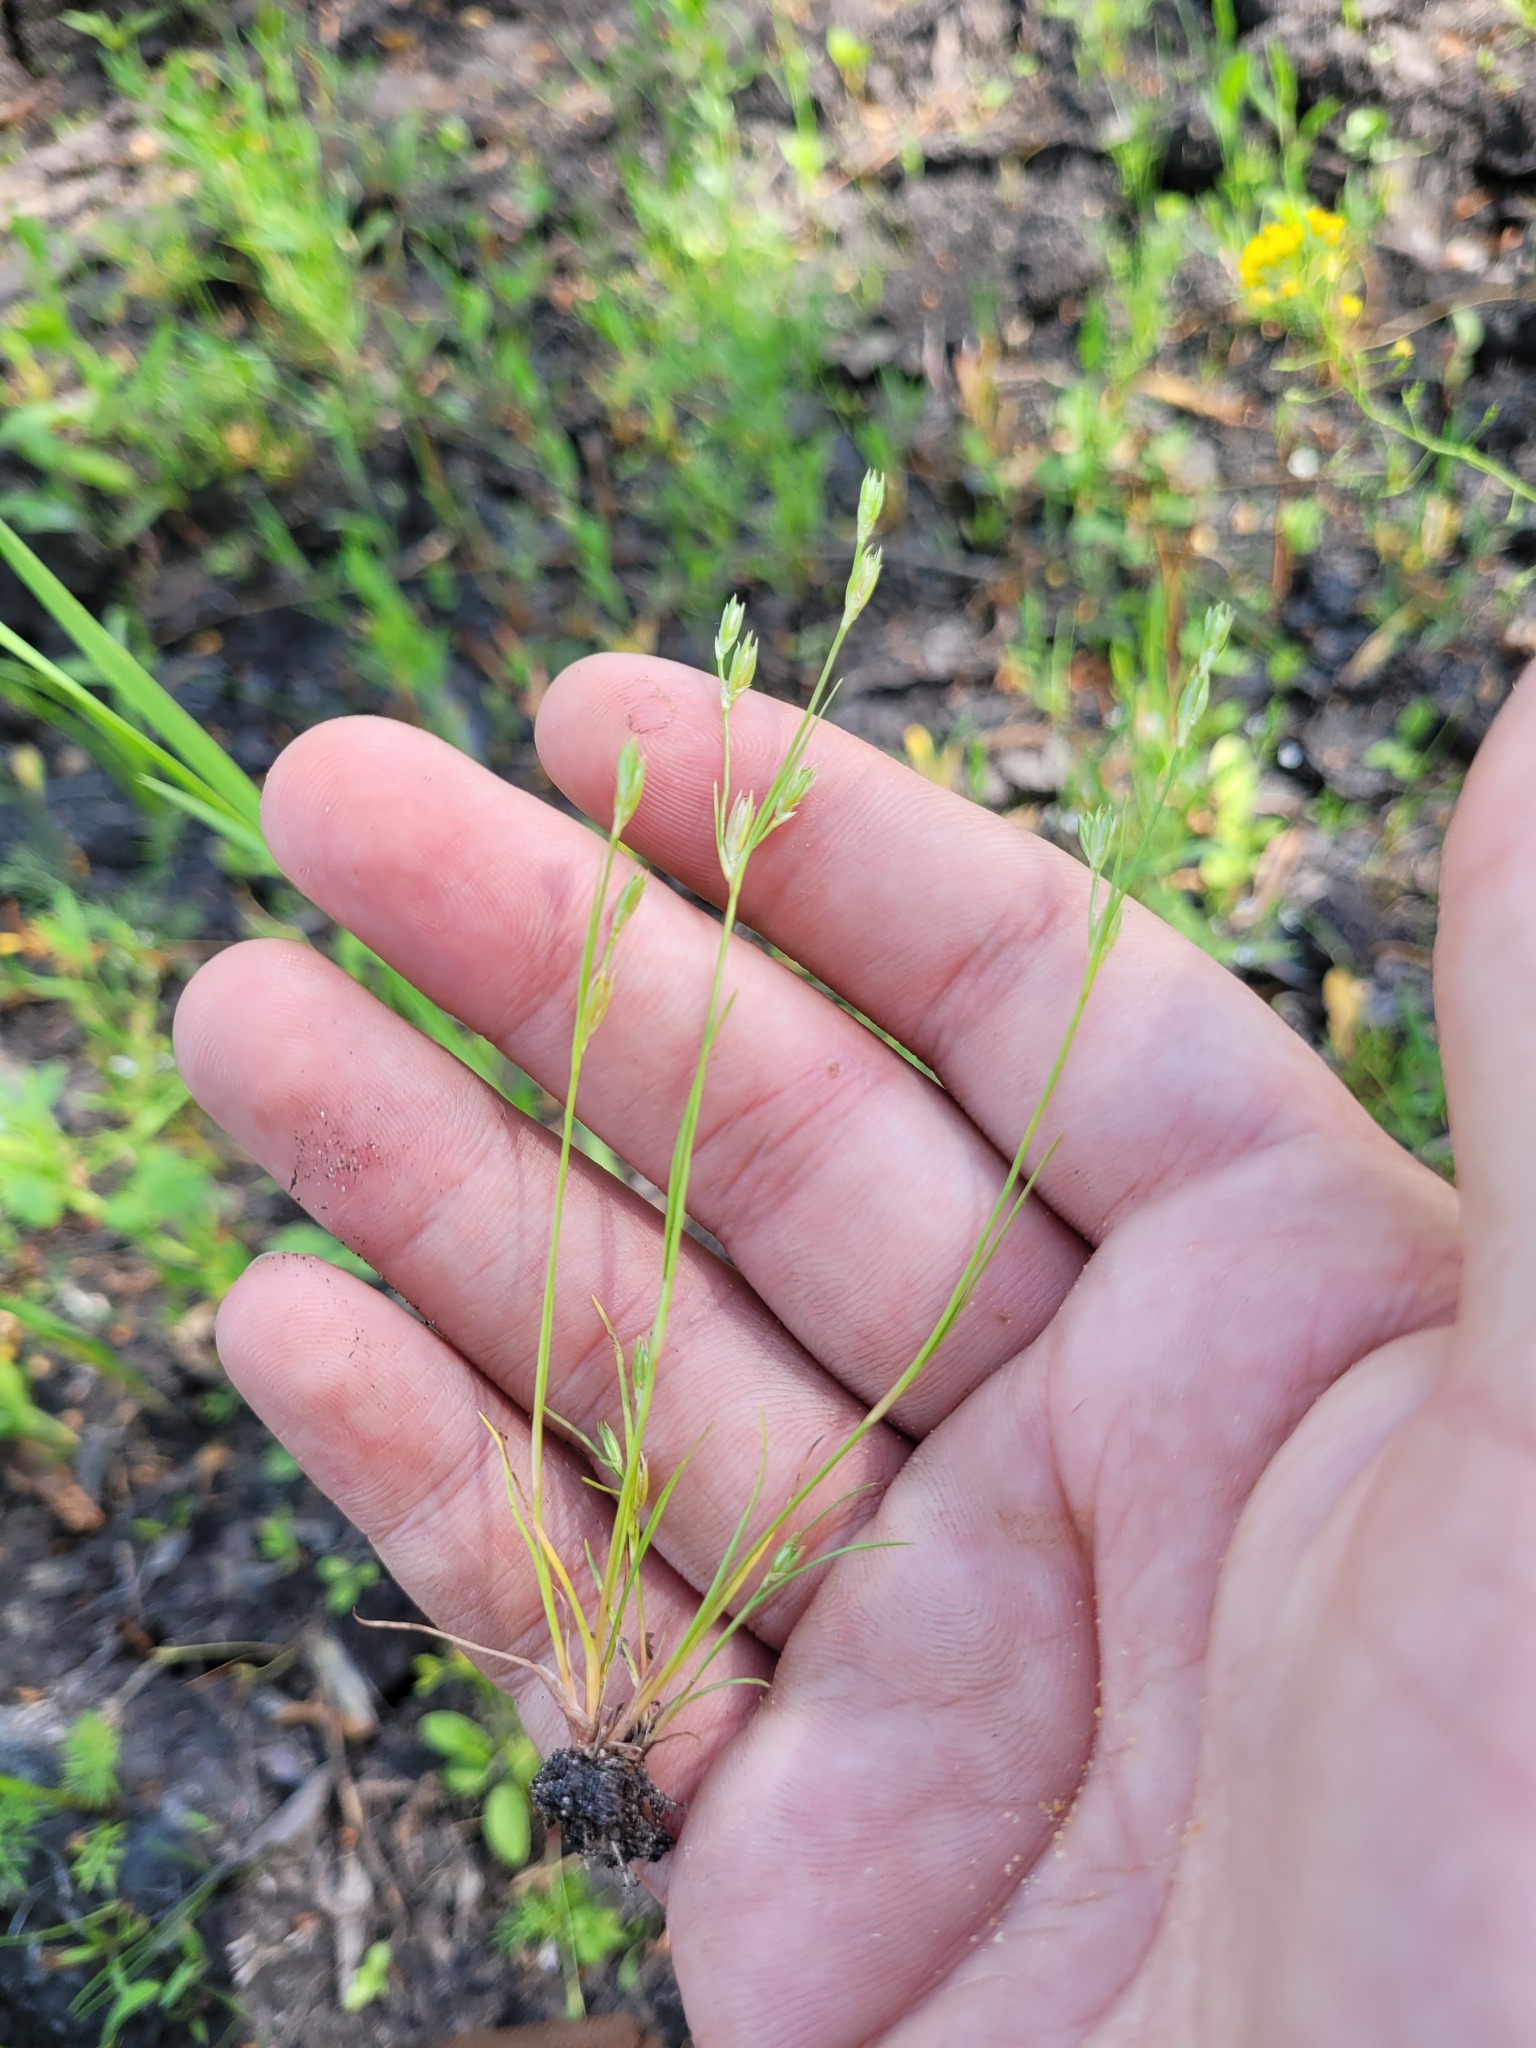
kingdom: Plantae
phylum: Tracheophyta
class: Liliopsida
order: Poales
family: Juncaceae
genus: Juncus
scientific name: Juncus bufonius
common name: Toad rush
